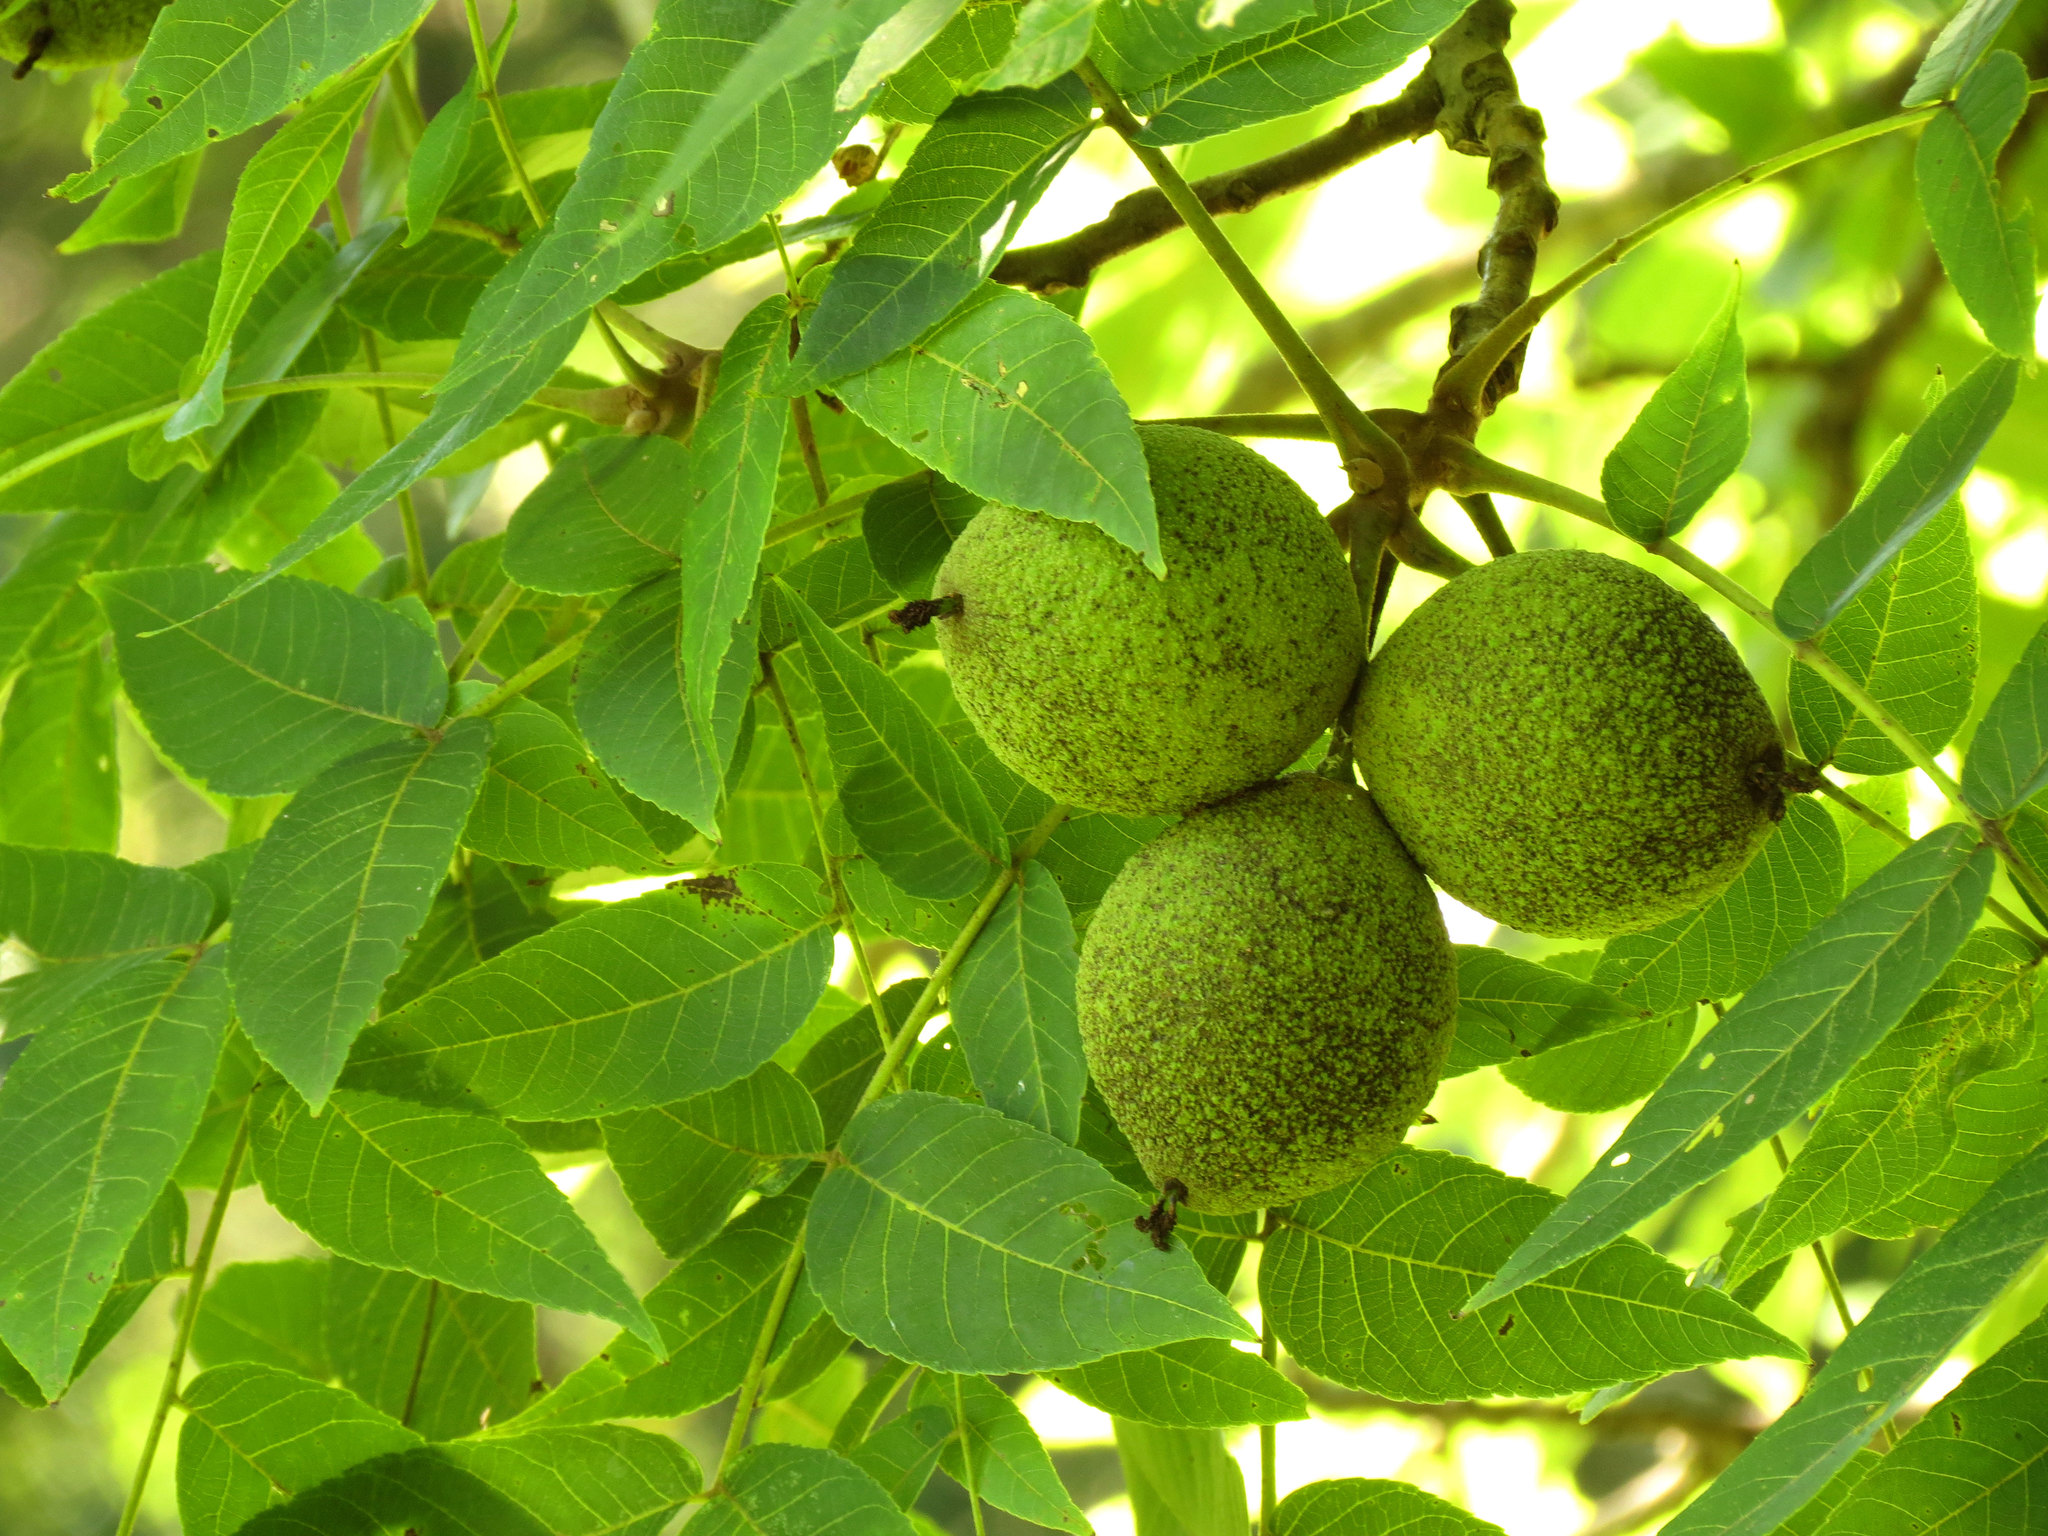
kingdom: Plantae
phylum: Tracheophyta
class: Magnoliopsida
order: Fagales
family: Juglandaceae
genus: Juglans
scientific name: Juglans nigra
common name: Black walnut
